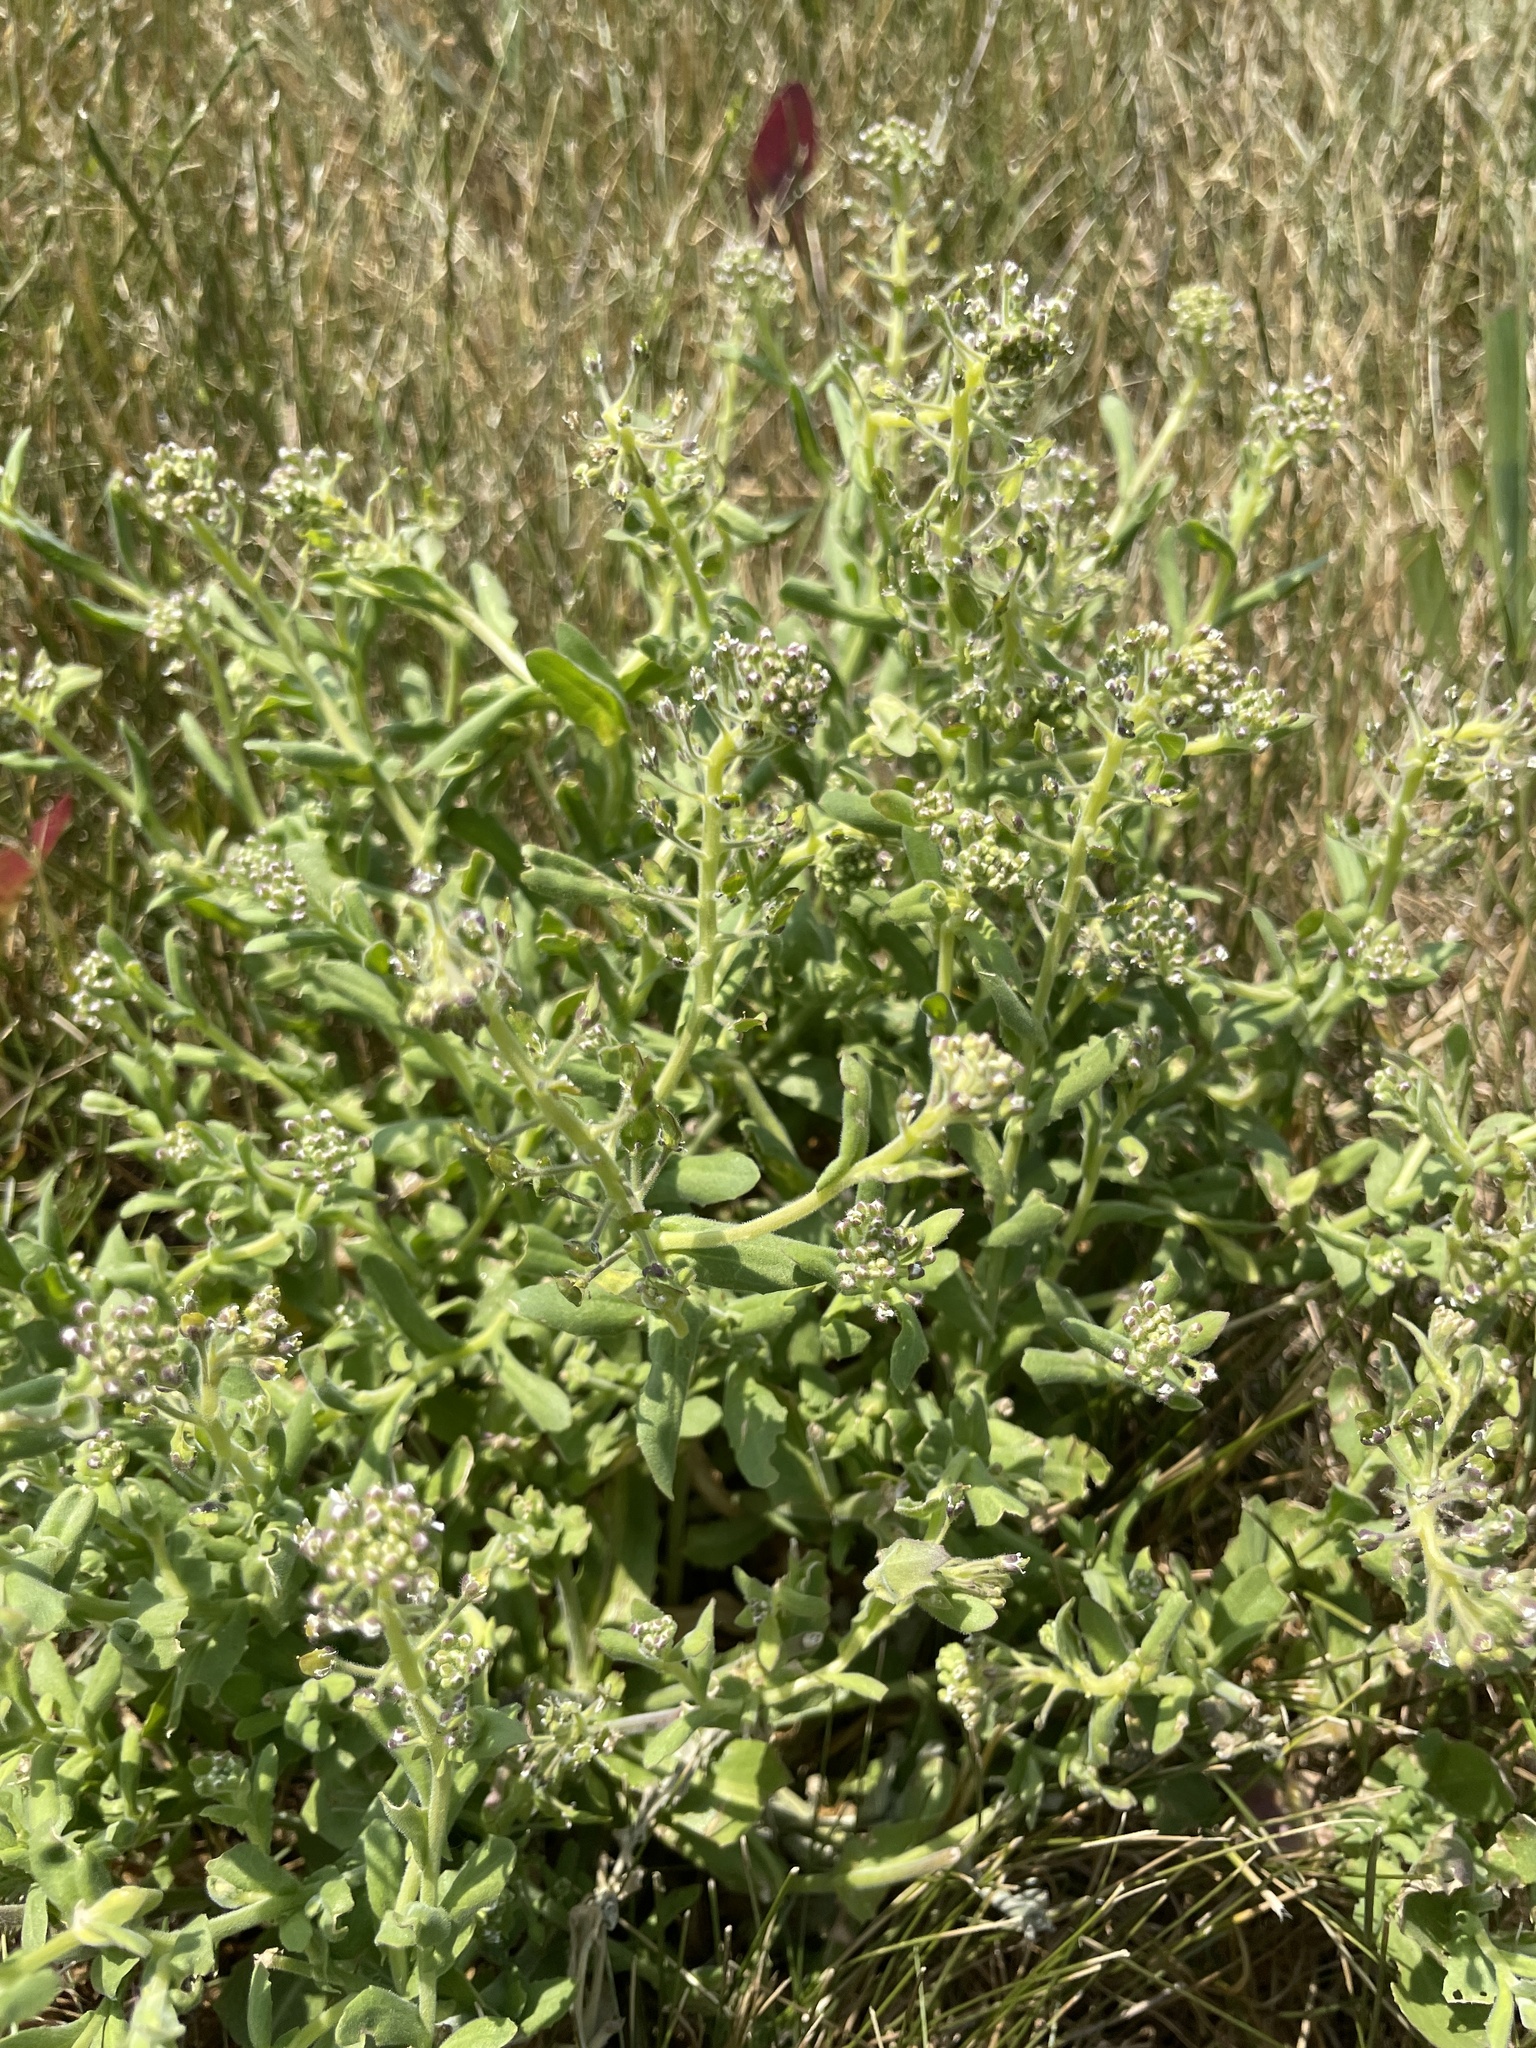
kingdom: Plantae
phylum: Tracheophyta
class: Magnoliopsida
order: Brassicales
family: Brassicaceae
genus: Lepidium
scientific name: Lepidium campestre
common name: Field pepperwort
